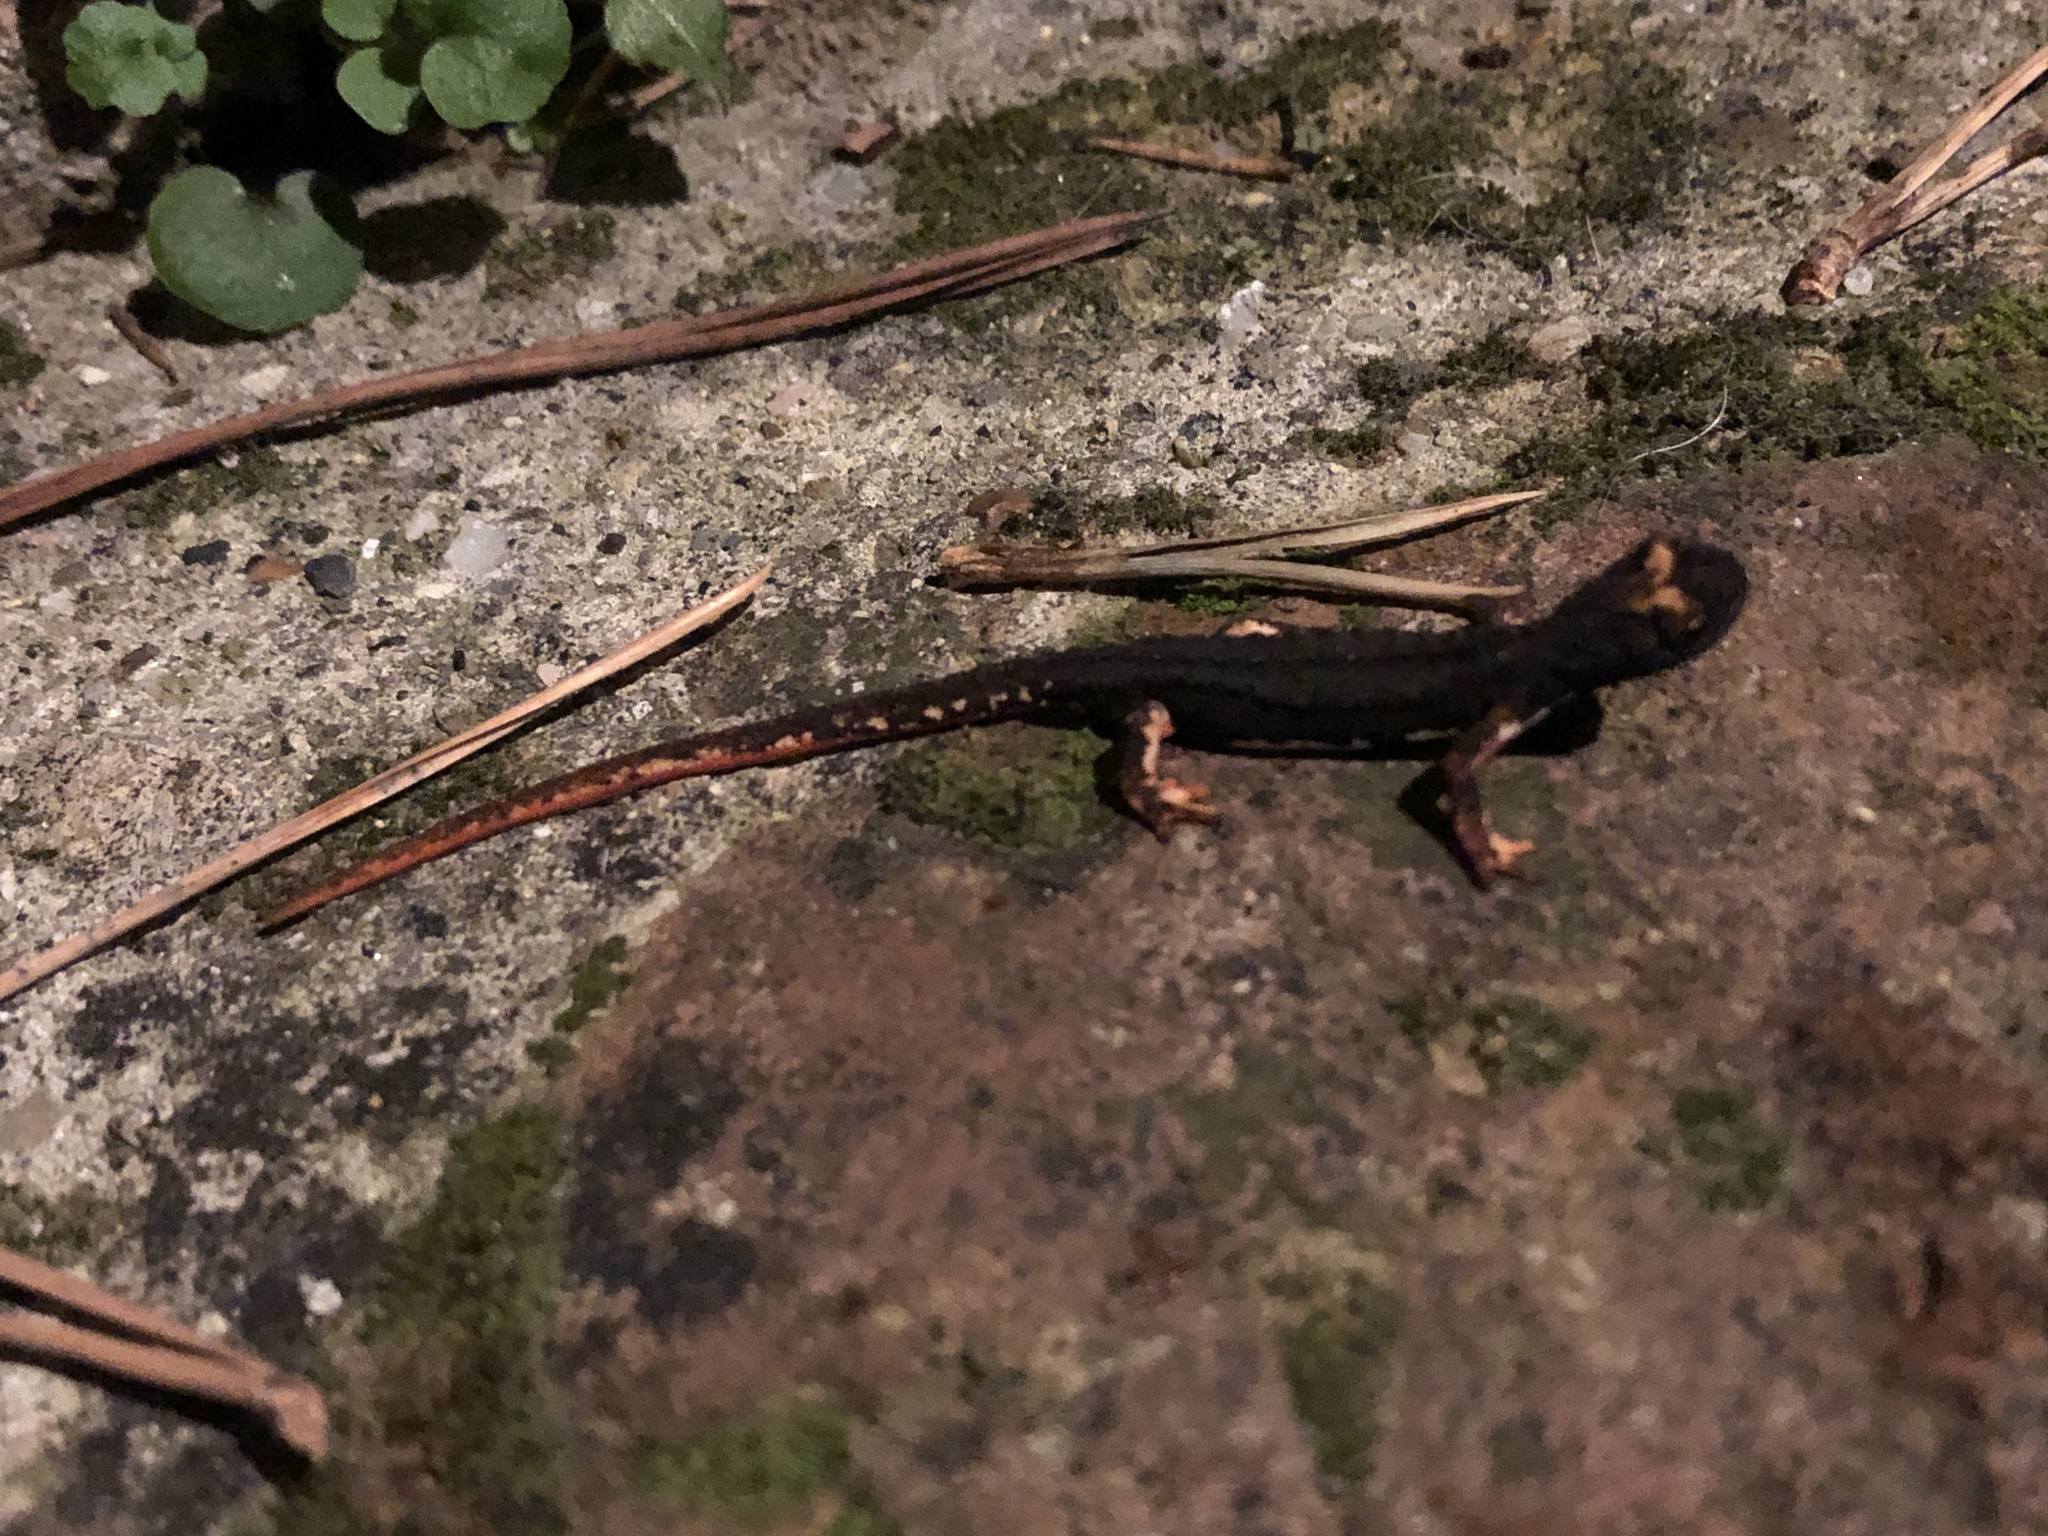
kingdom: Animalia
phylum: Chordata
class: Amphibia
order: Caudata
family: Salamandridae
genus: Salamandrina
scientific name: Salamandrina perspicillata
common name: Northern spectacled salamander
